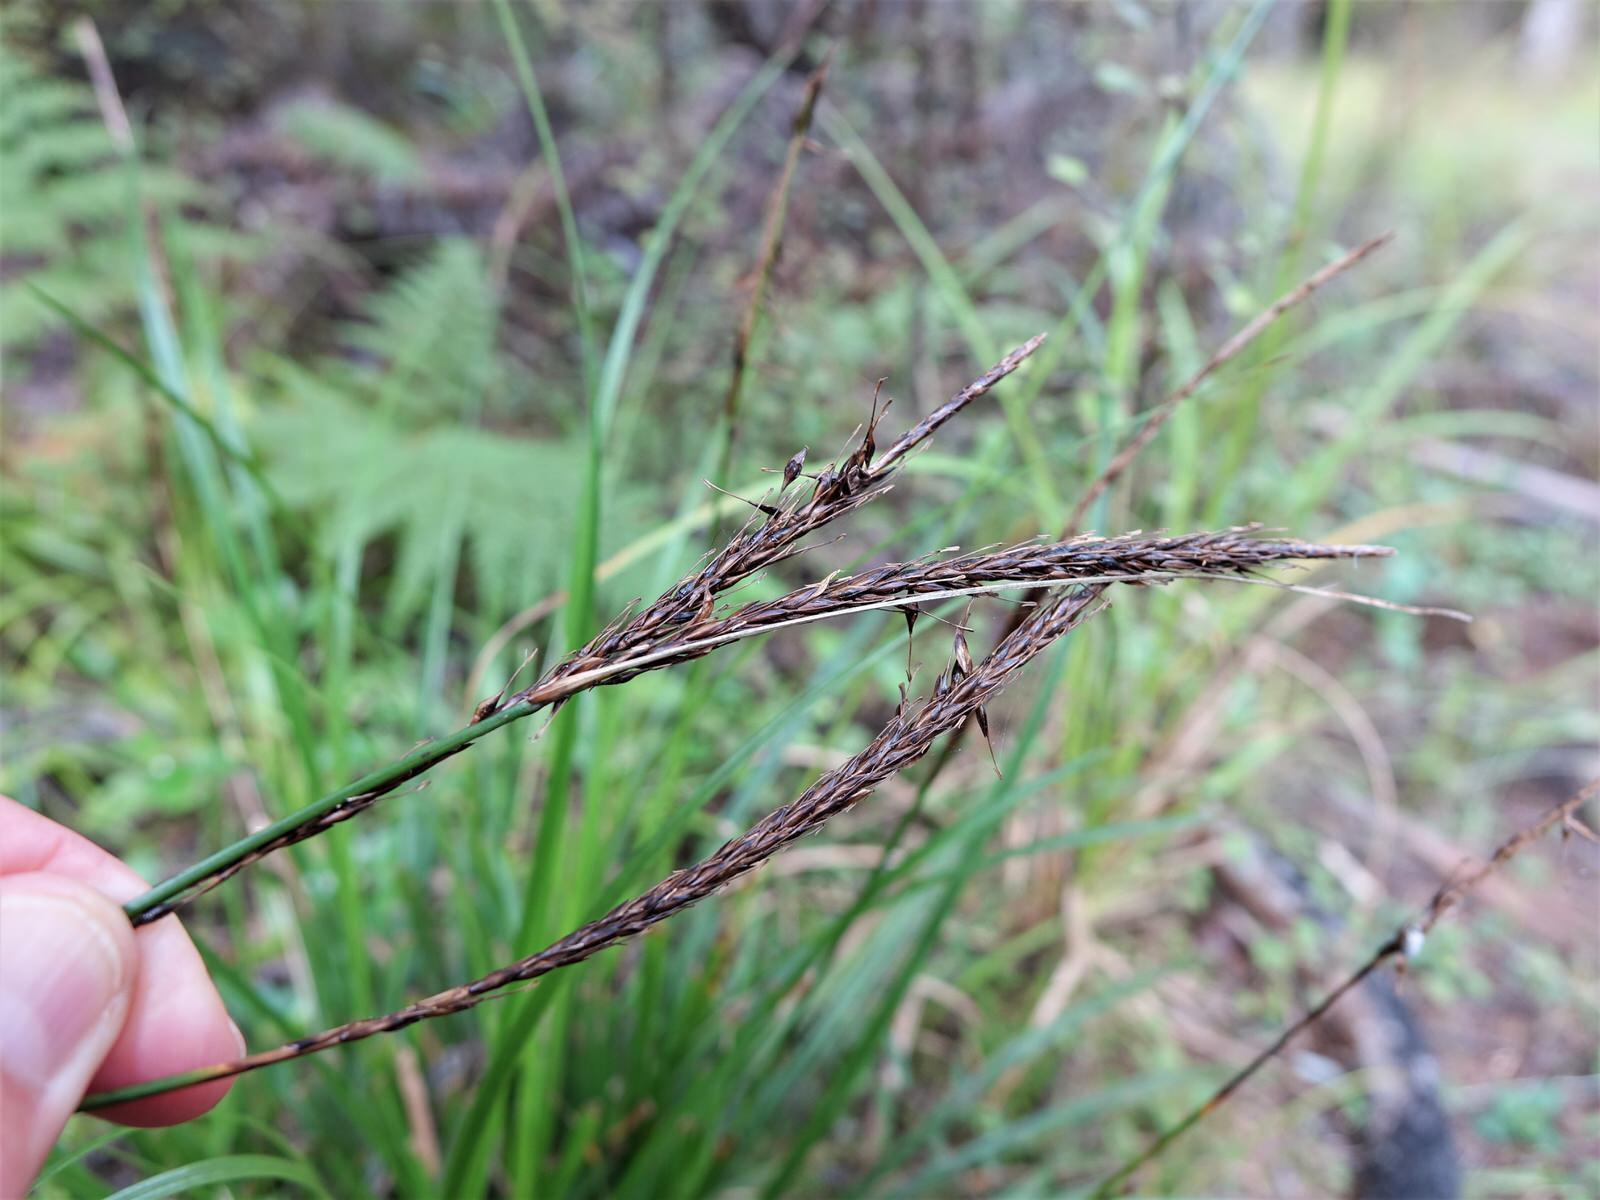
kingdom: Plantae
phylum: Tracheophyta
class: Liliopsida
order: Poales
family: Cyperaceae
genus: Carex
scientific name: Carex uncinata
